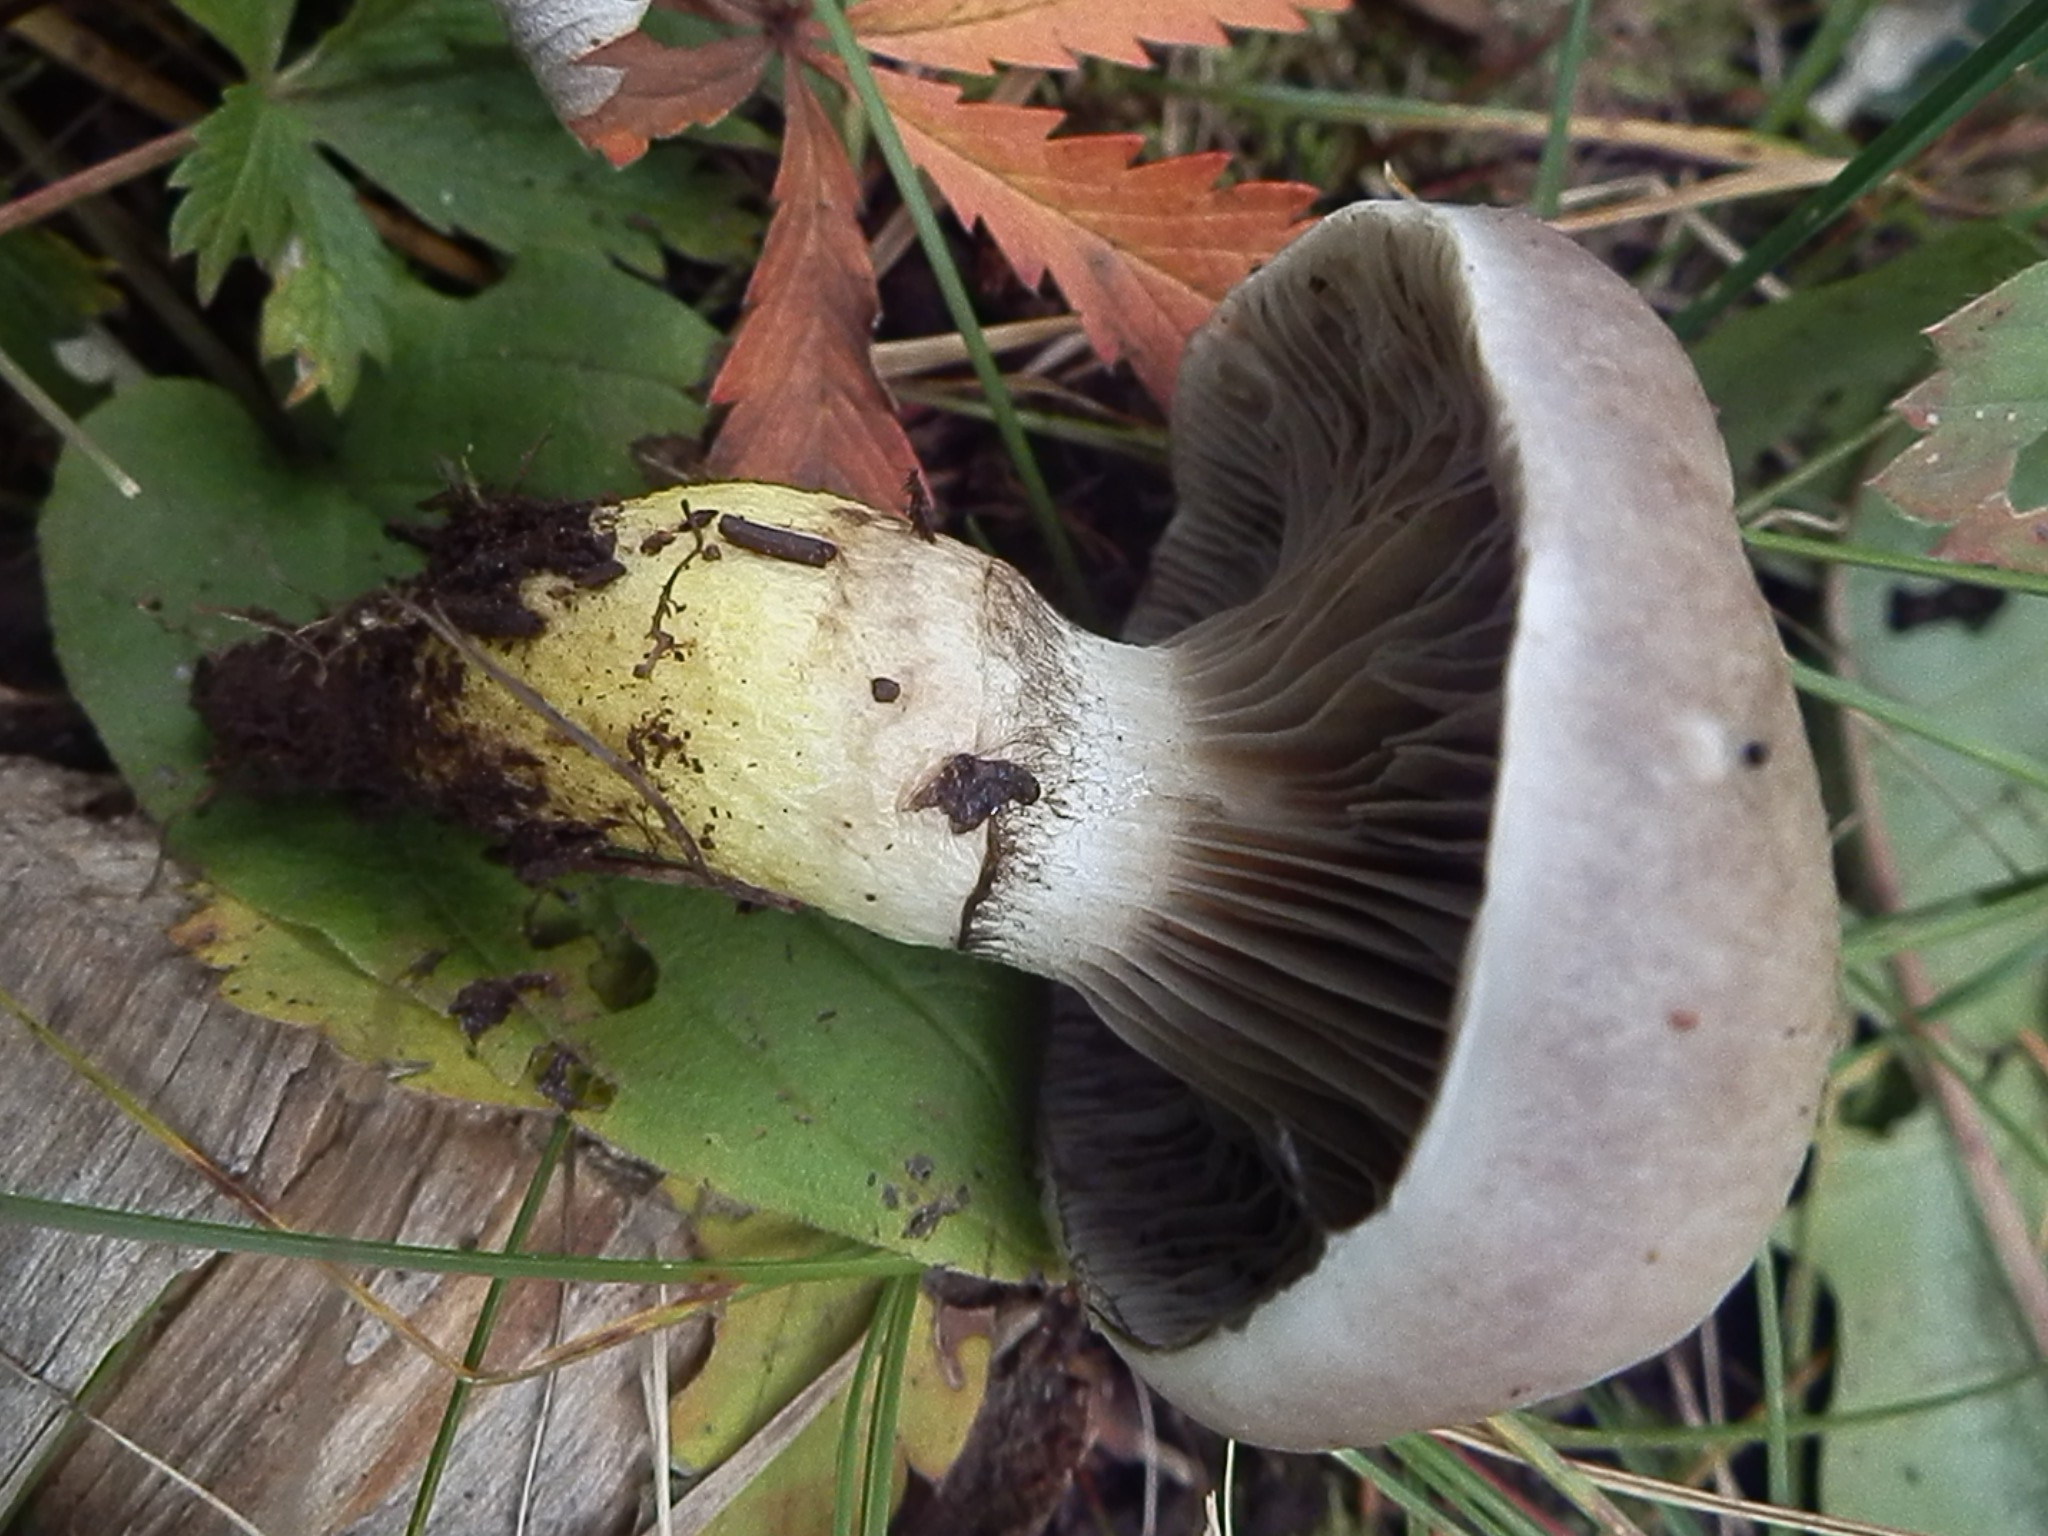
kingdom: Fungi
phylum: Basidiomycota
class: Agaricomycetes
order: Boletales
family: Gomphidiaceae
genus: Gomphidius
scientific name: Gomphidius glutinosus
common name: Slimy spike
